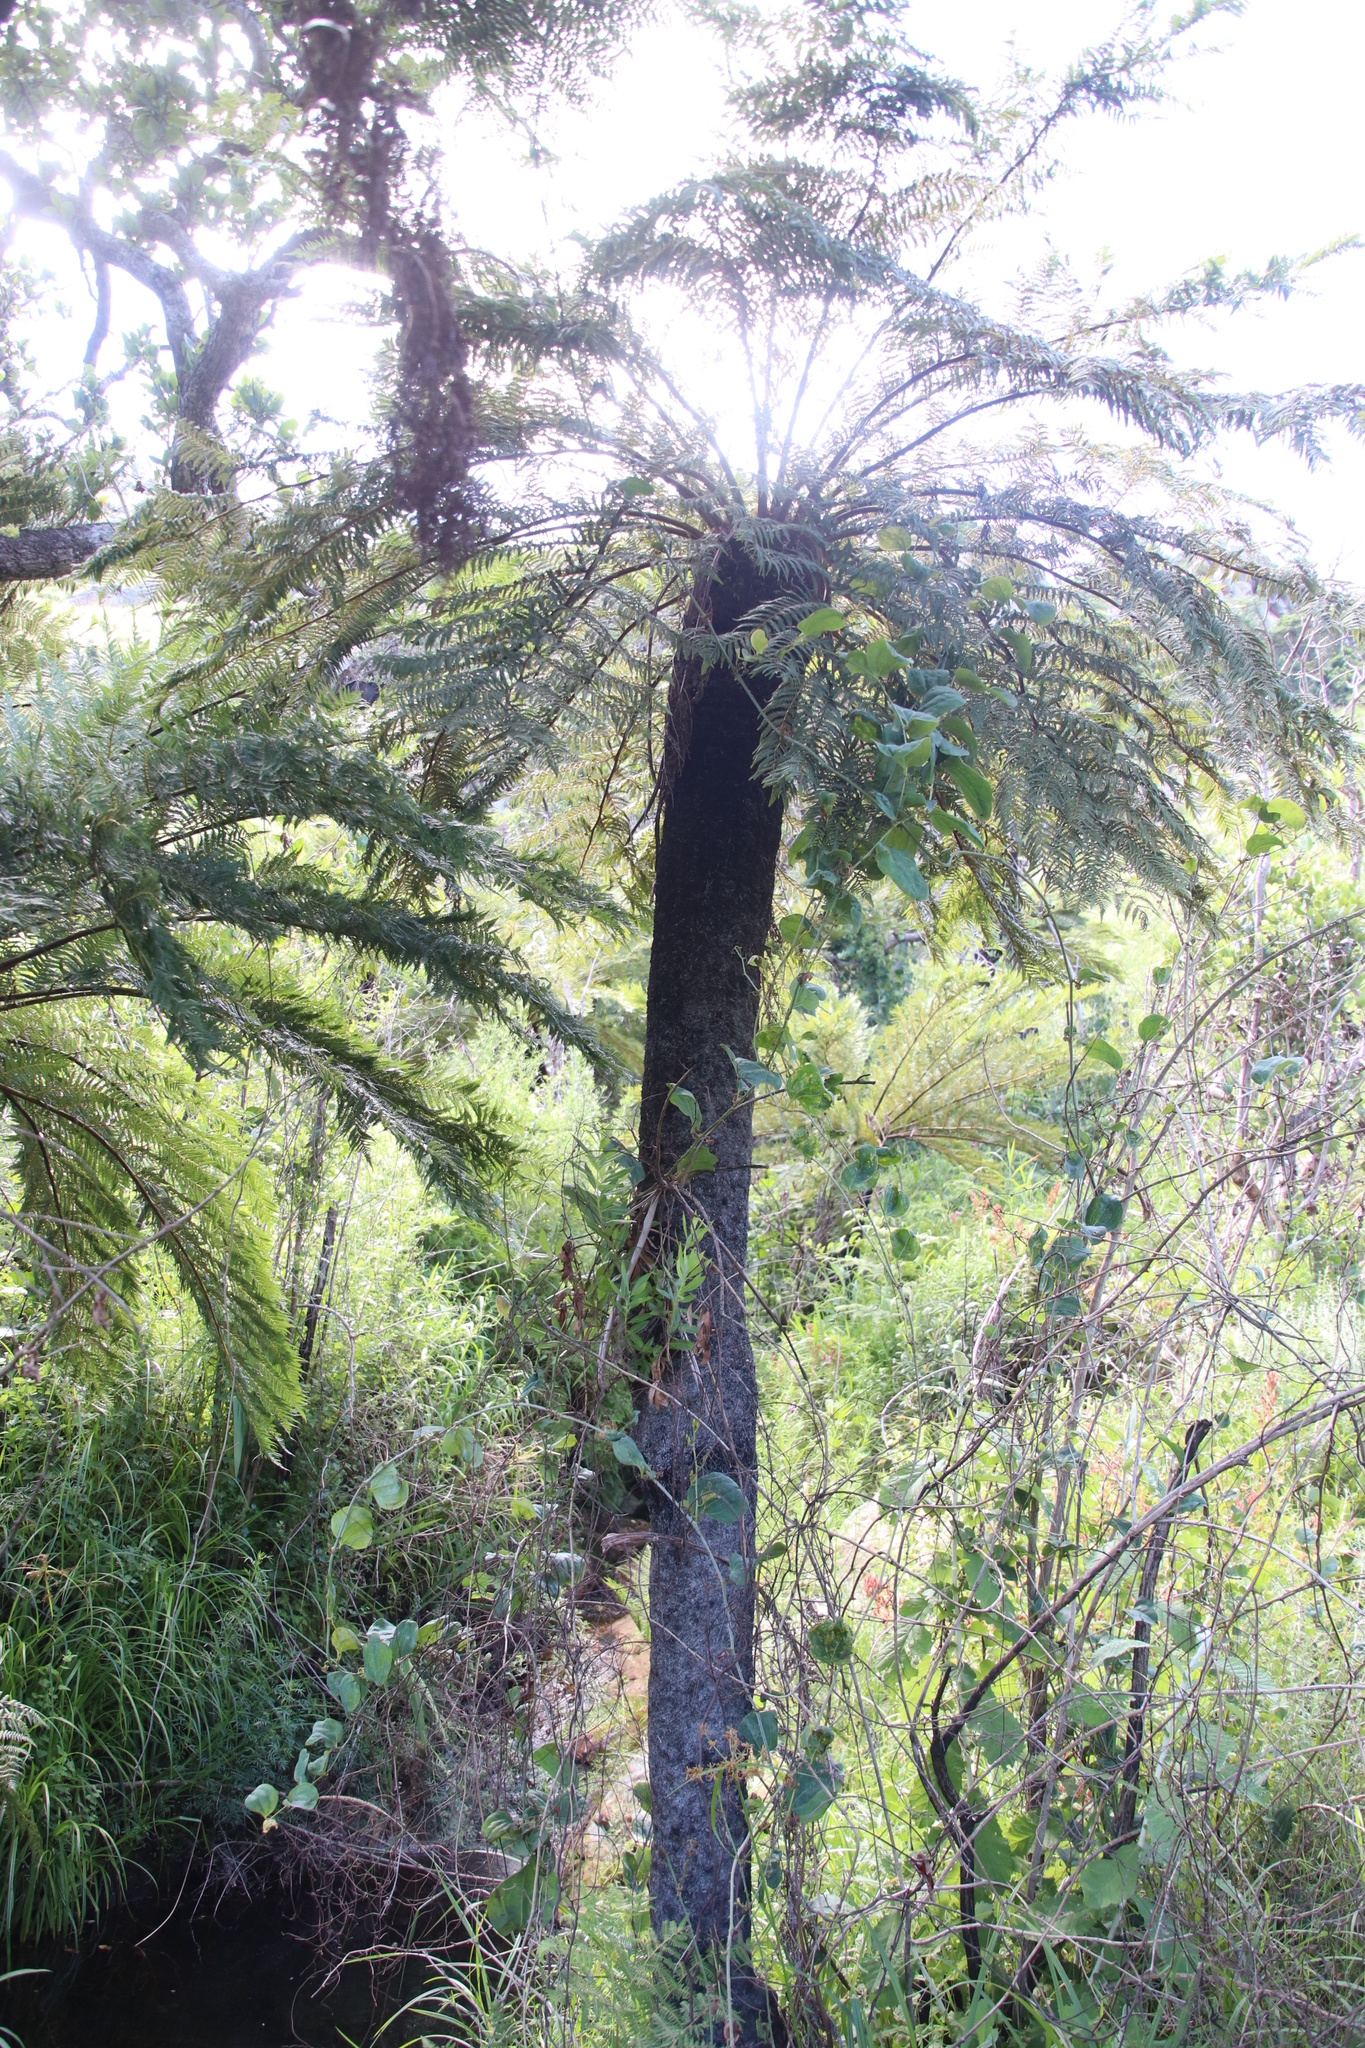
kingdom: Plantae
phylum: Tracheophyta
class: Polypodiopsida
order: Cyatheales
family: Cyatheaceae
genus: Alsophila
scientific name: Alsophila dregei
